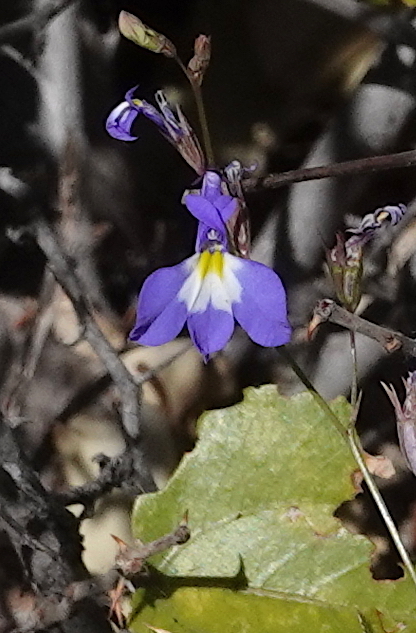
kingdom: Plantae
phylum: Tracheophyta
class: Magnoliopsida
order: Asterales
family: Campanulaceae
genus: Lobelia
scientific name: Lobelia erinus
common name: Edging lobelia
